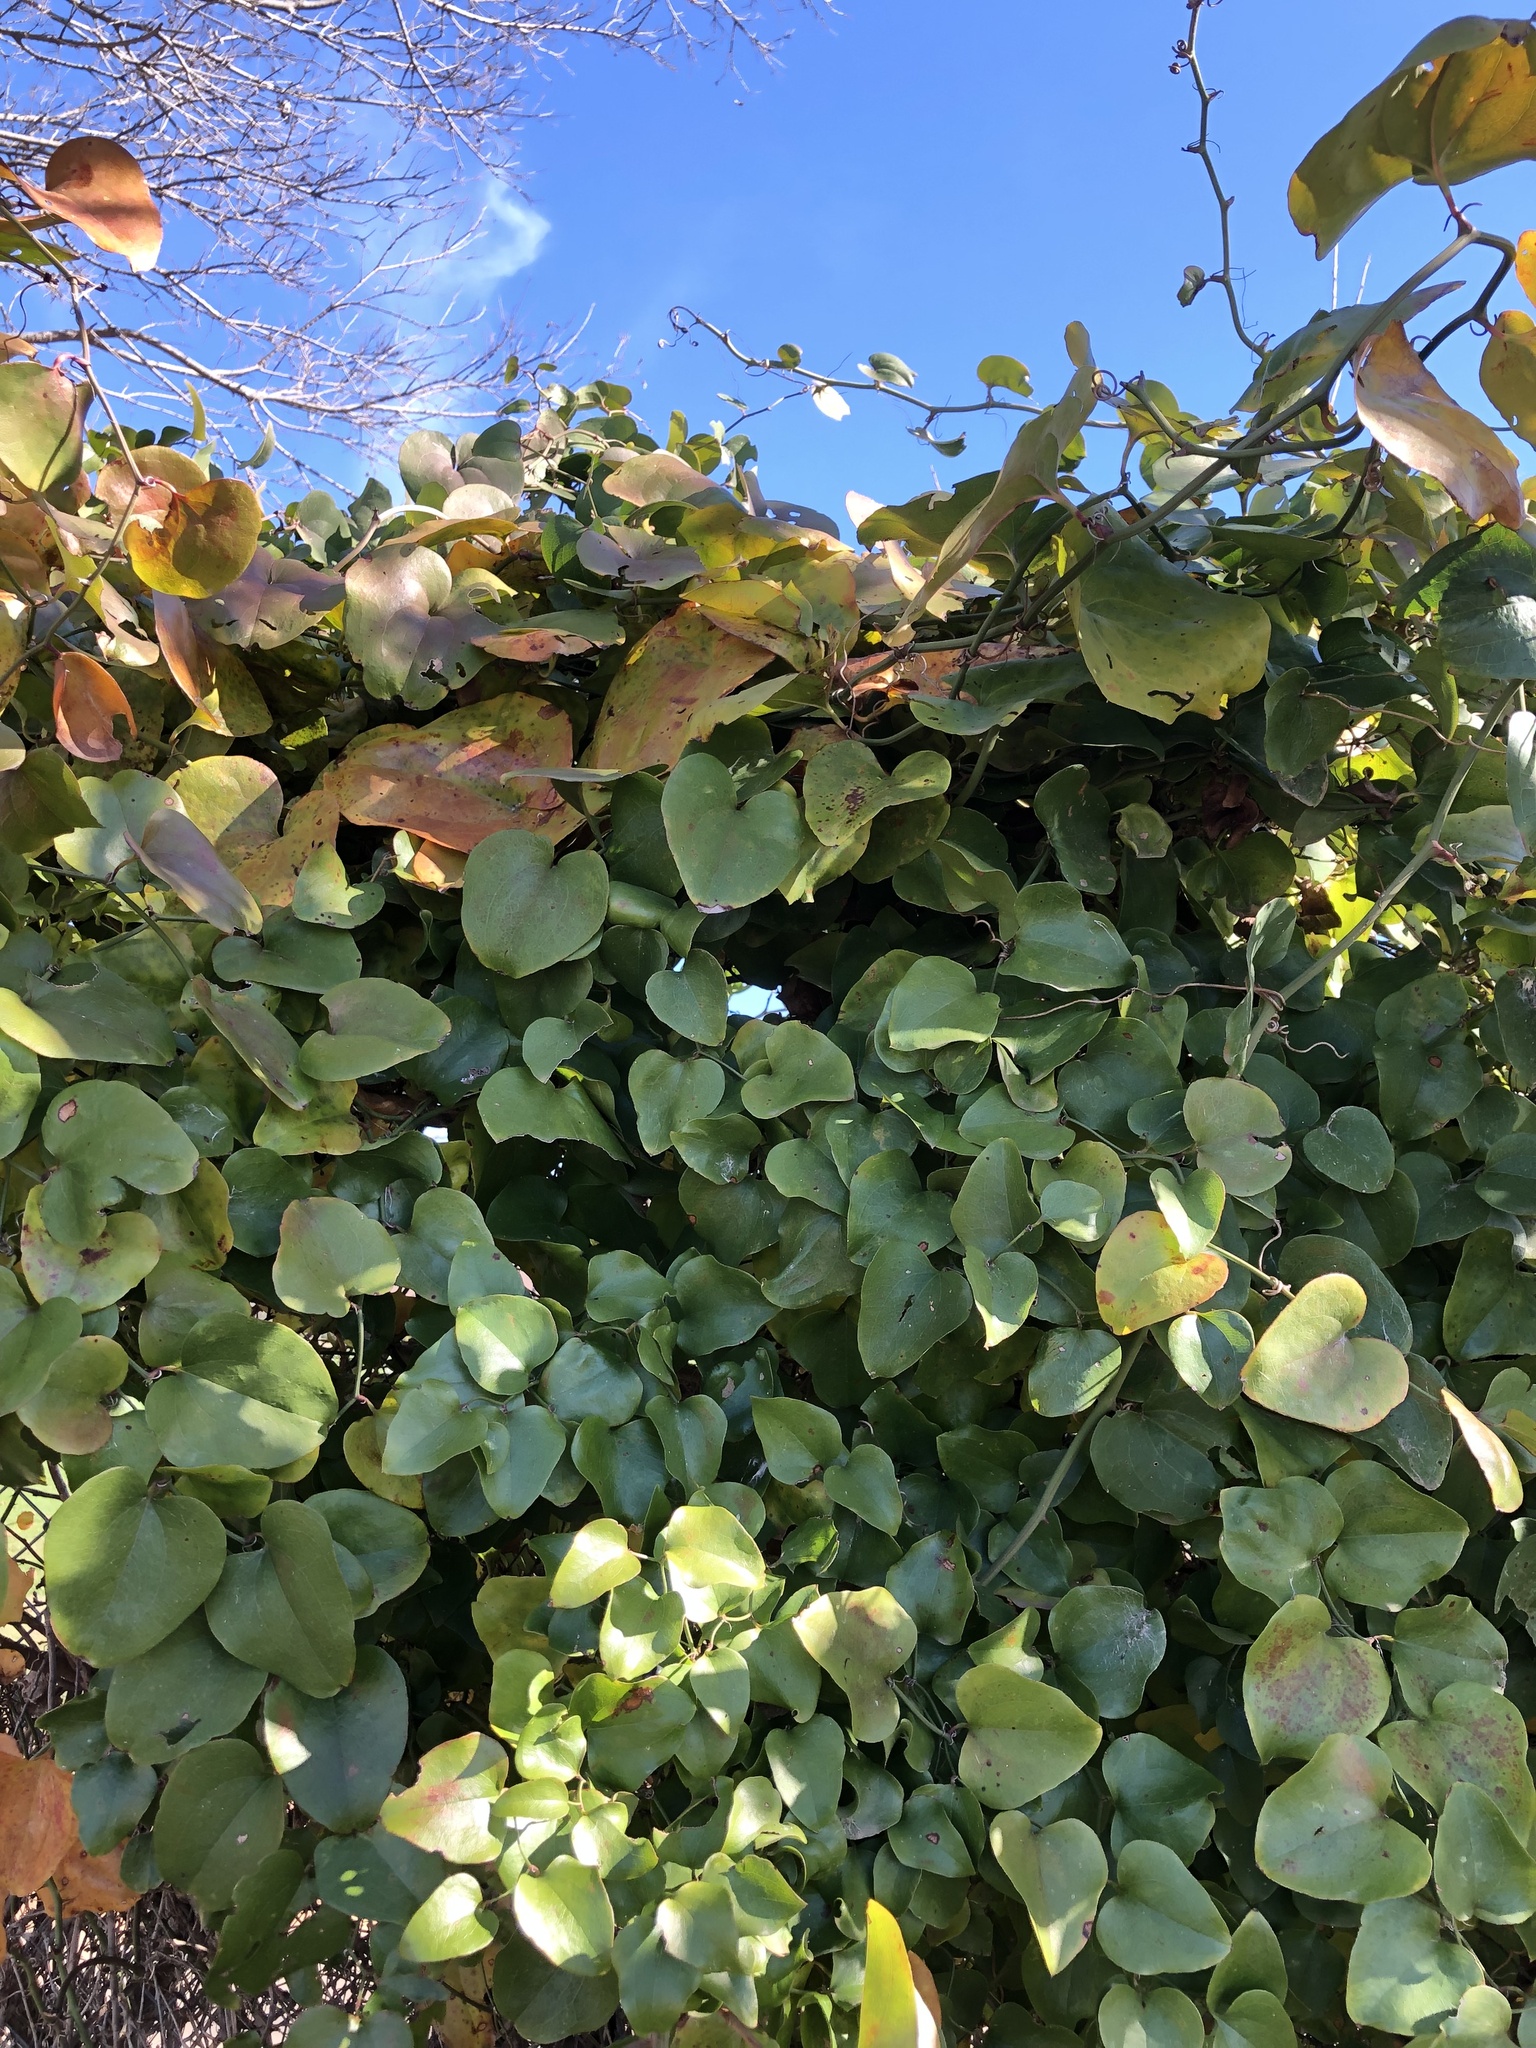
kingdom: Plantae
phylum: Tracheophyta
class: Liliopsida
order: Liliales
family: Smilacaceae
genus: Smilax
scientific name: Smilax bona-nox
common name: Catbrier
